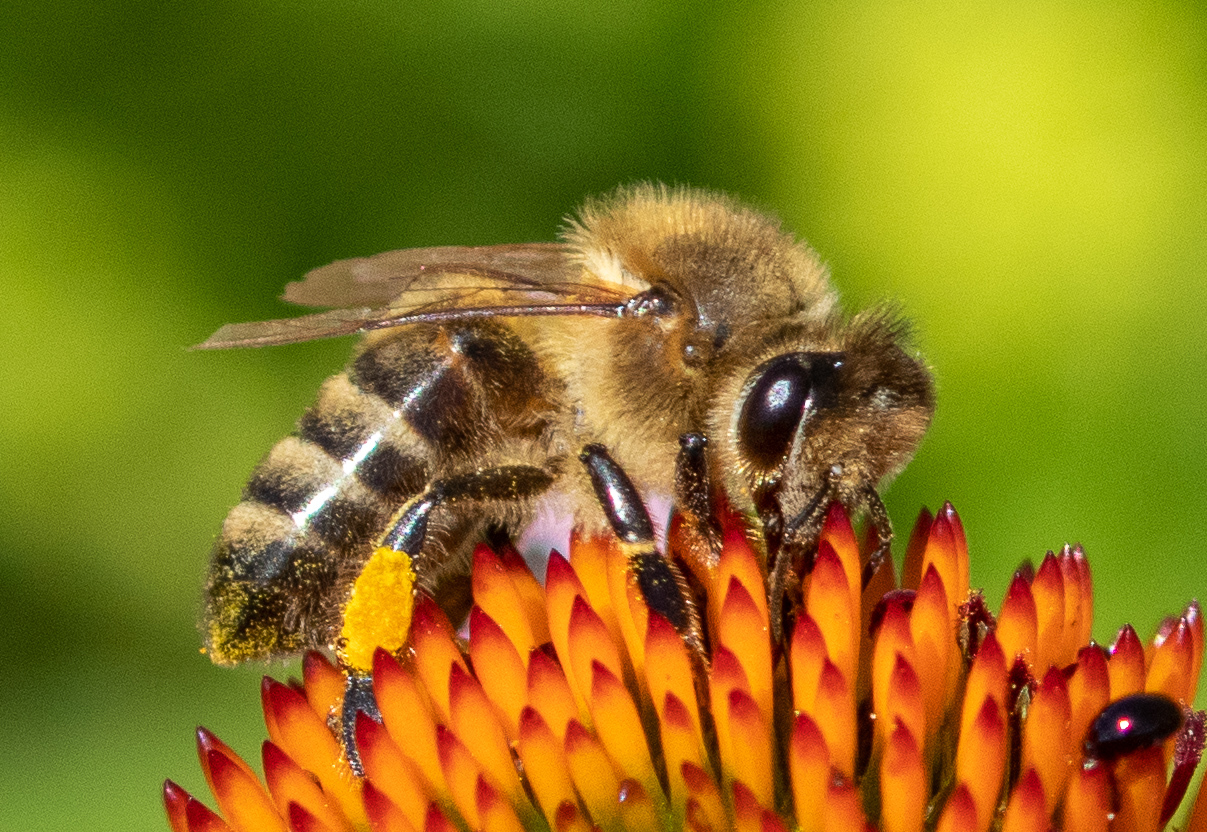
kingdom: Animalia
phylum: Arthropoda
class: Insecta
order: Hymenoptera
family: Apidae
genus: Apis
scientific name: Apis mellifera
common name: Honey bee
